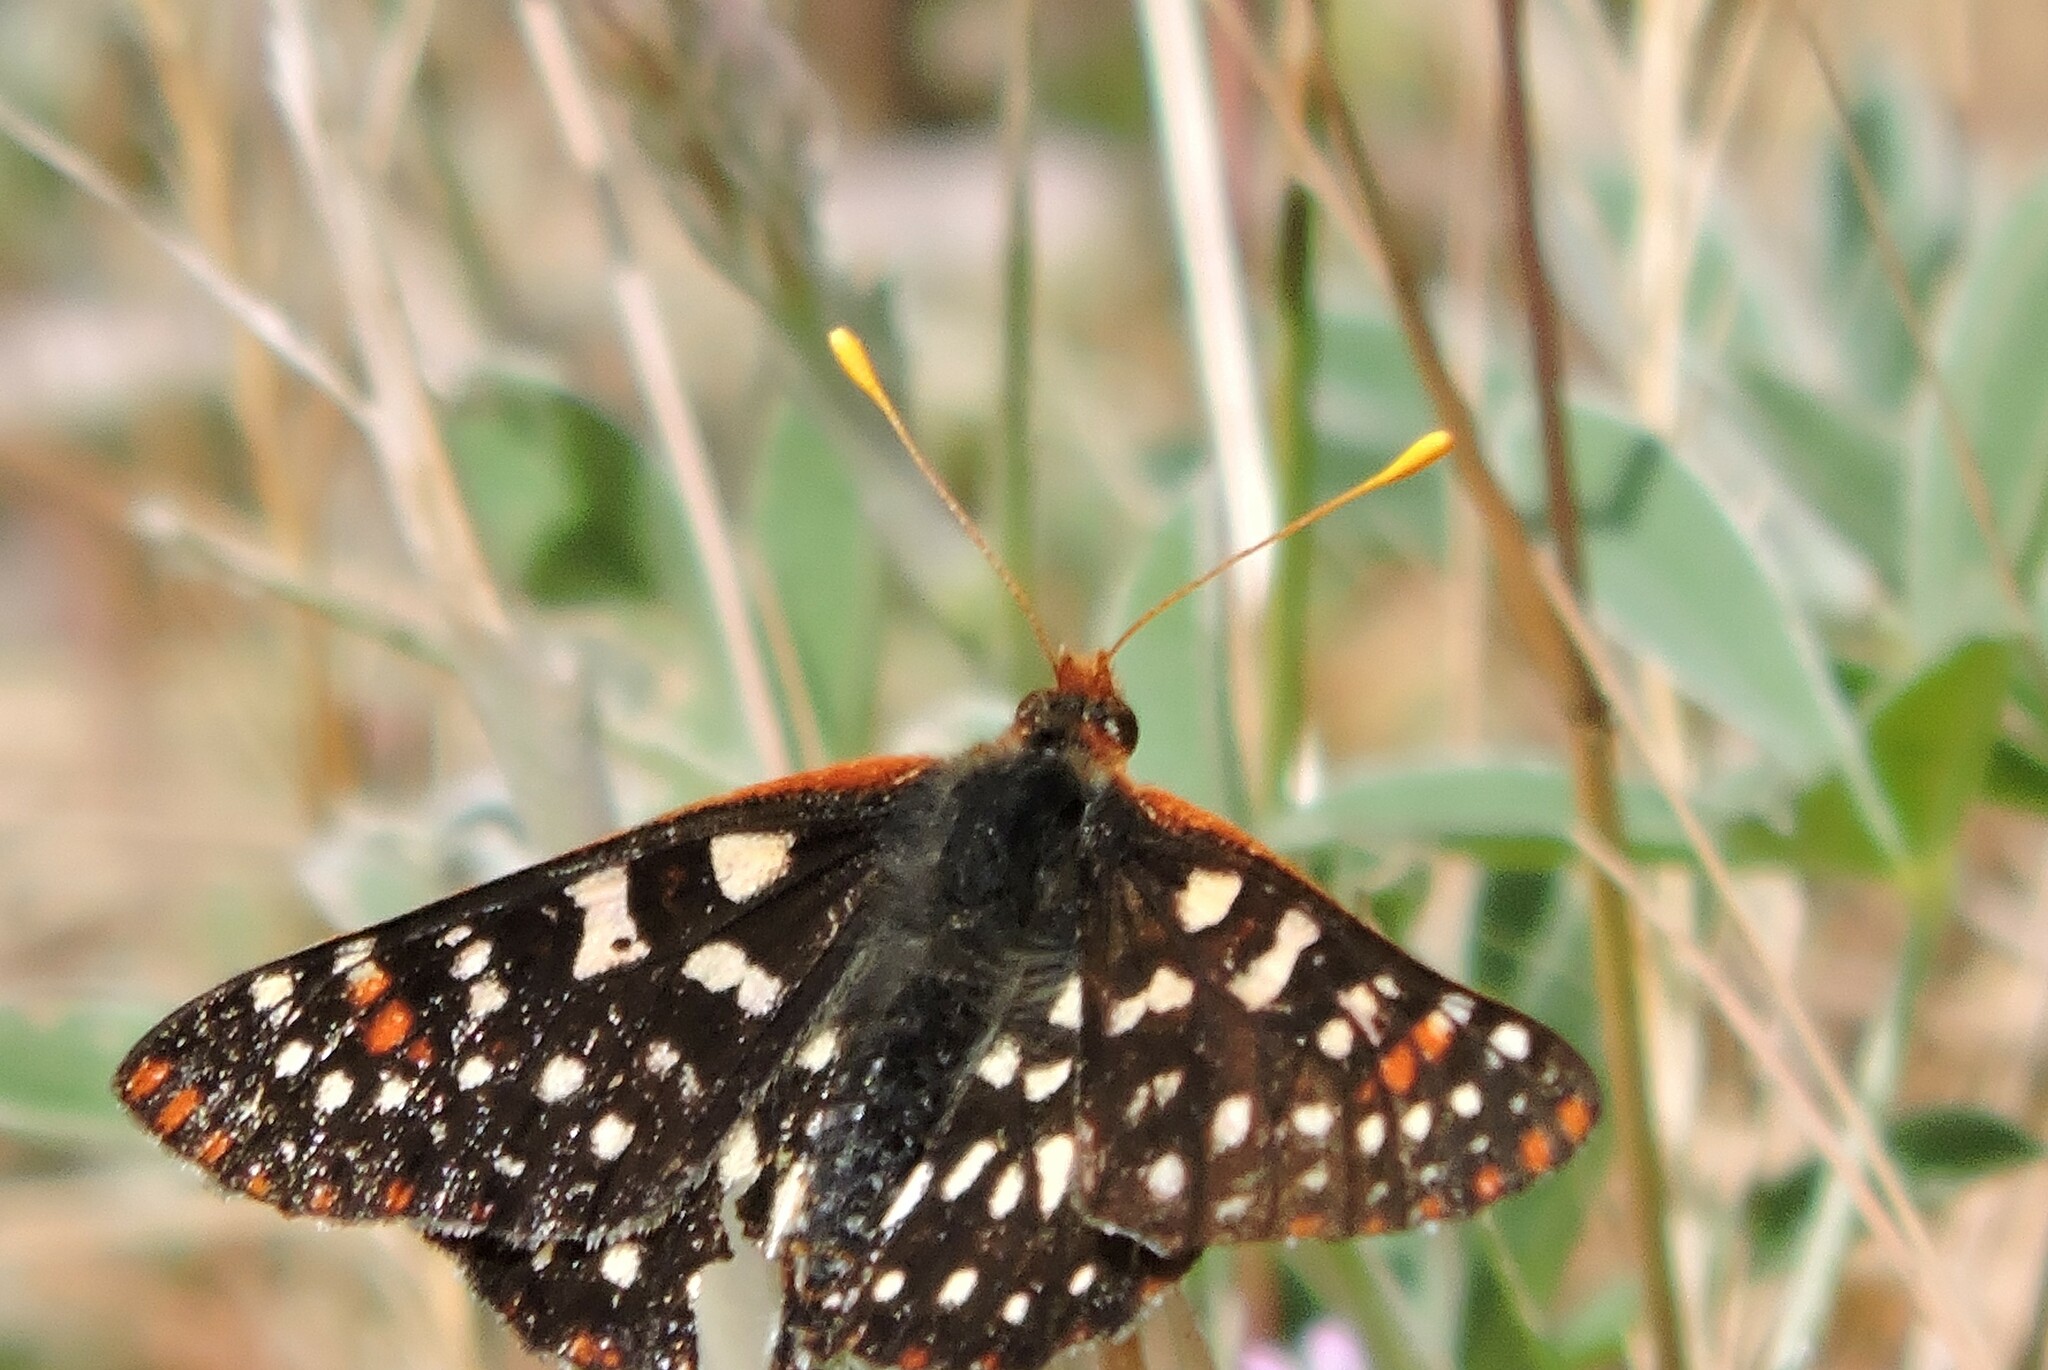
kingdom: Animalia
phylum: Arthropoda
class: Insecta
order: Lepidoptera
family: Nymphalidae
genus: Occidryas
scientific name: Occidryas chalcedona
